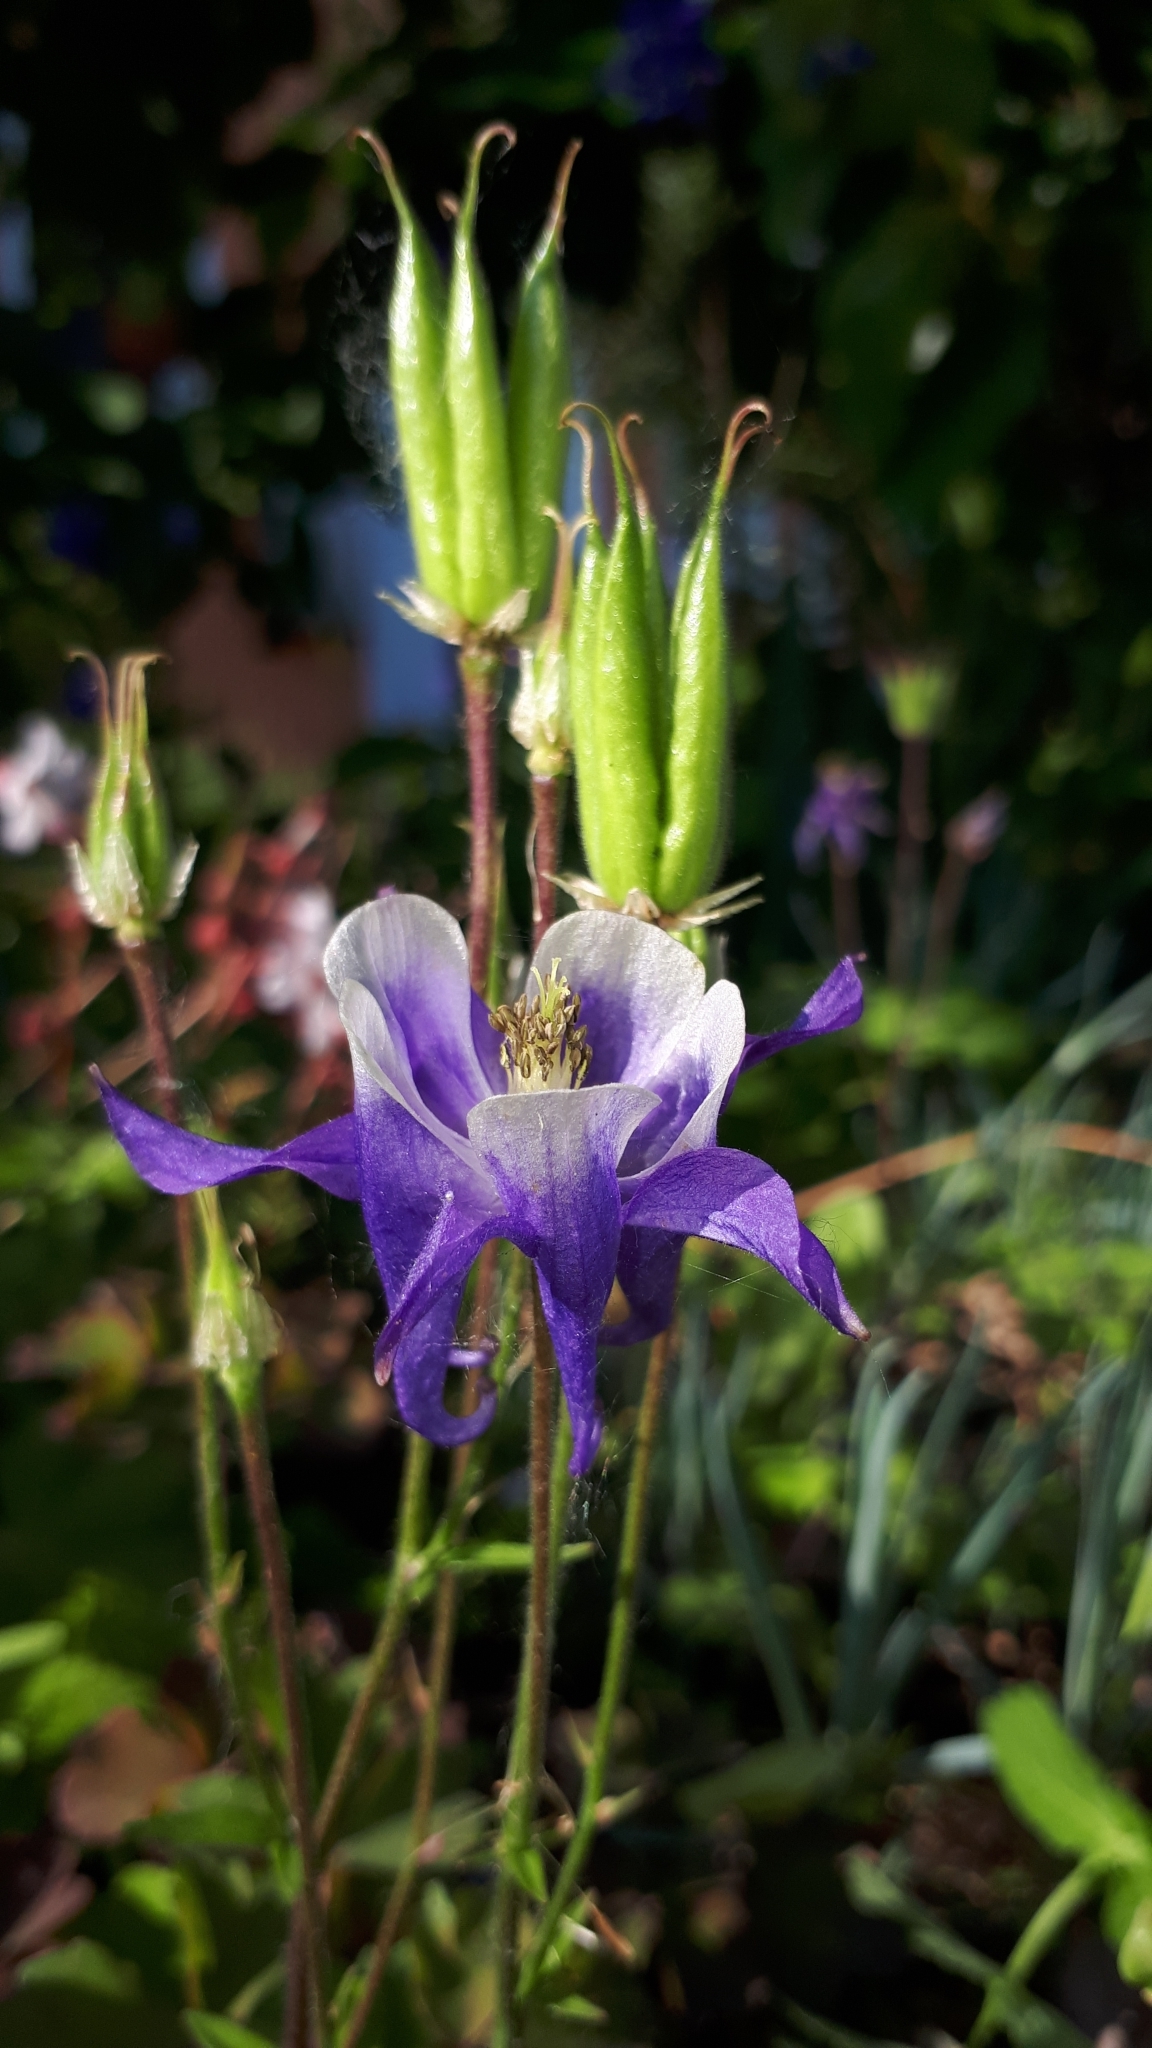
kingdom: Plantae
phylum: Tracheophyta
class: Magnoliopsida
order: Ranunculales
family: Ranunculaceae
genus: Aquilegia
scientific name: Aquilegia vulgaris
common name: Columbine
